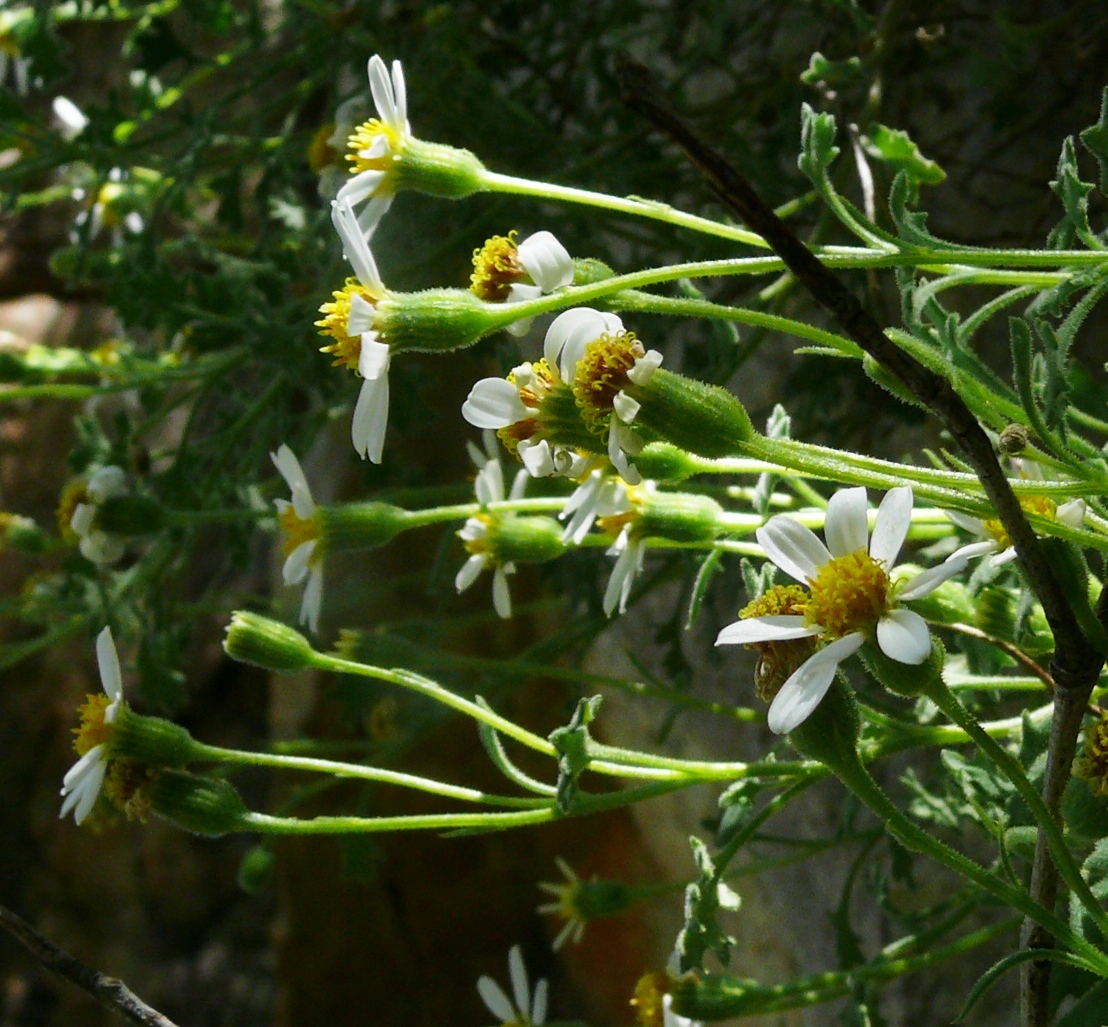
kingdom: Plantae
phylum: Tracheophyta
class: Magnoliopsida
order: Asterales
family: Asteraceae
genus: Lidbeckia
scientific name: Lidbeckia quinqueloba
